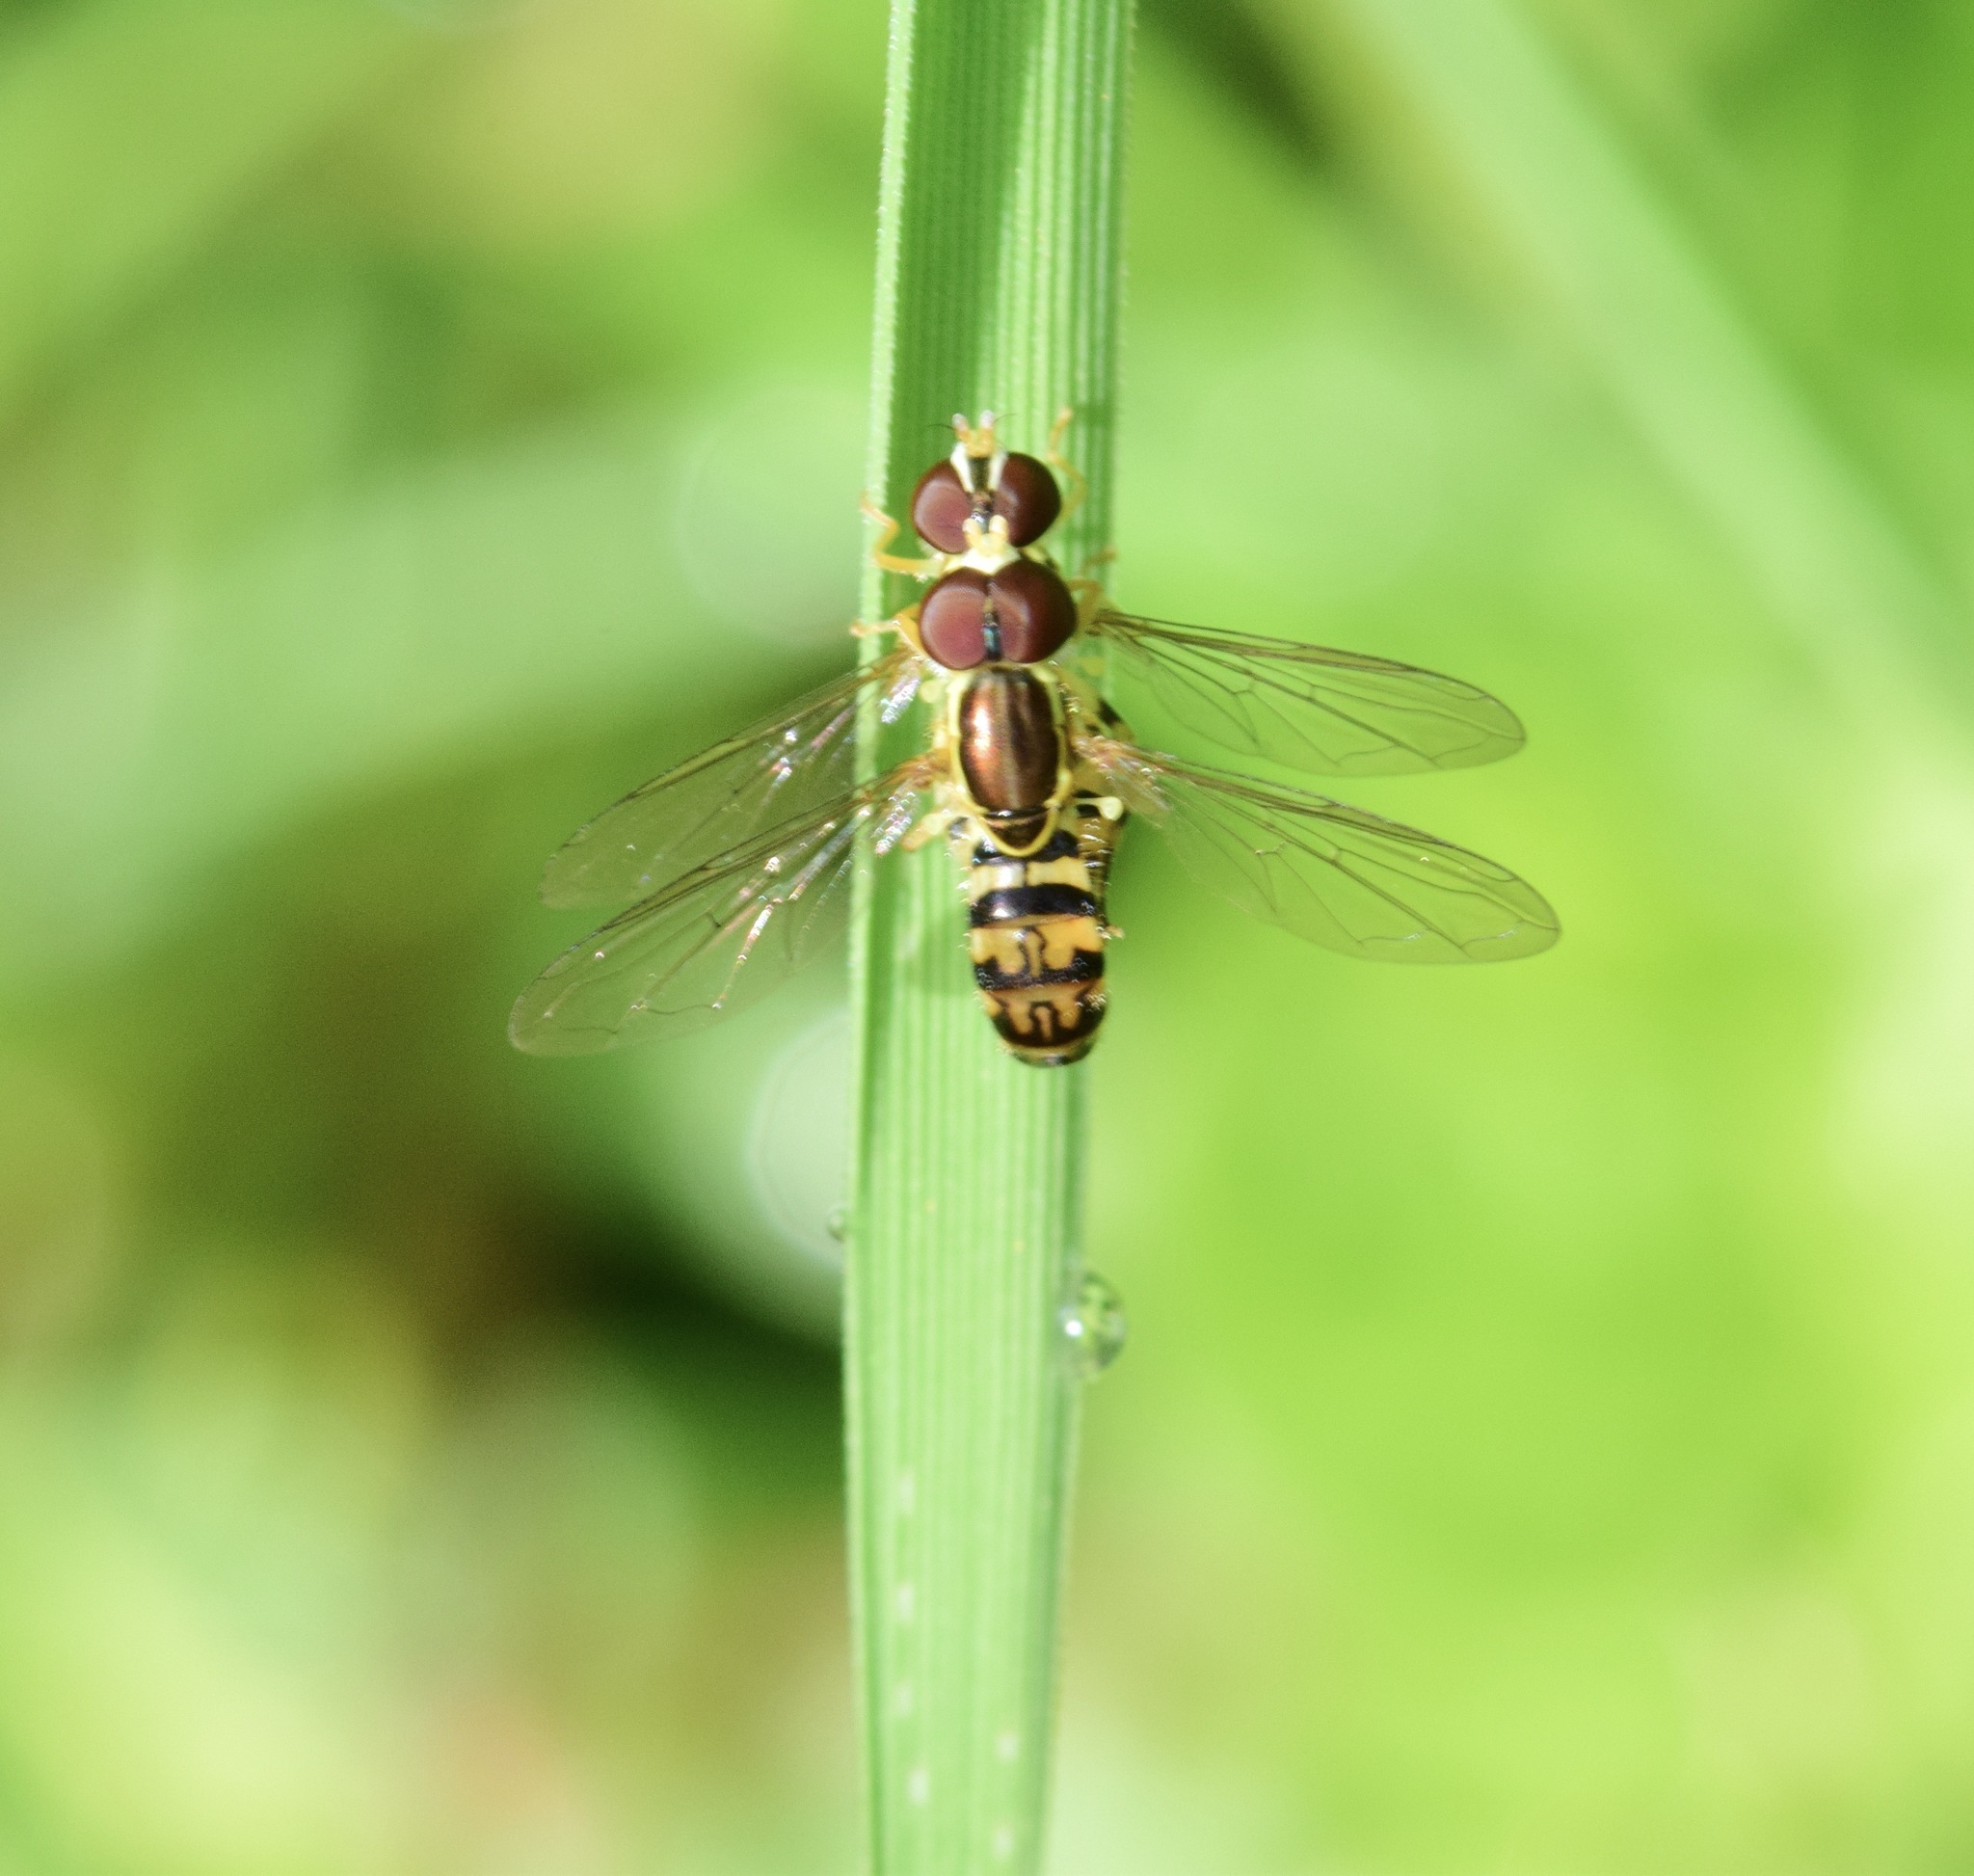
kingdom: Animalia
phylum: Arthropoda
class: Insecta
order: Diptera
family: Syrphidae
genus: Toxomerus
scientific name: Toxomerus geminatus
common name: Eastern calligrapher
